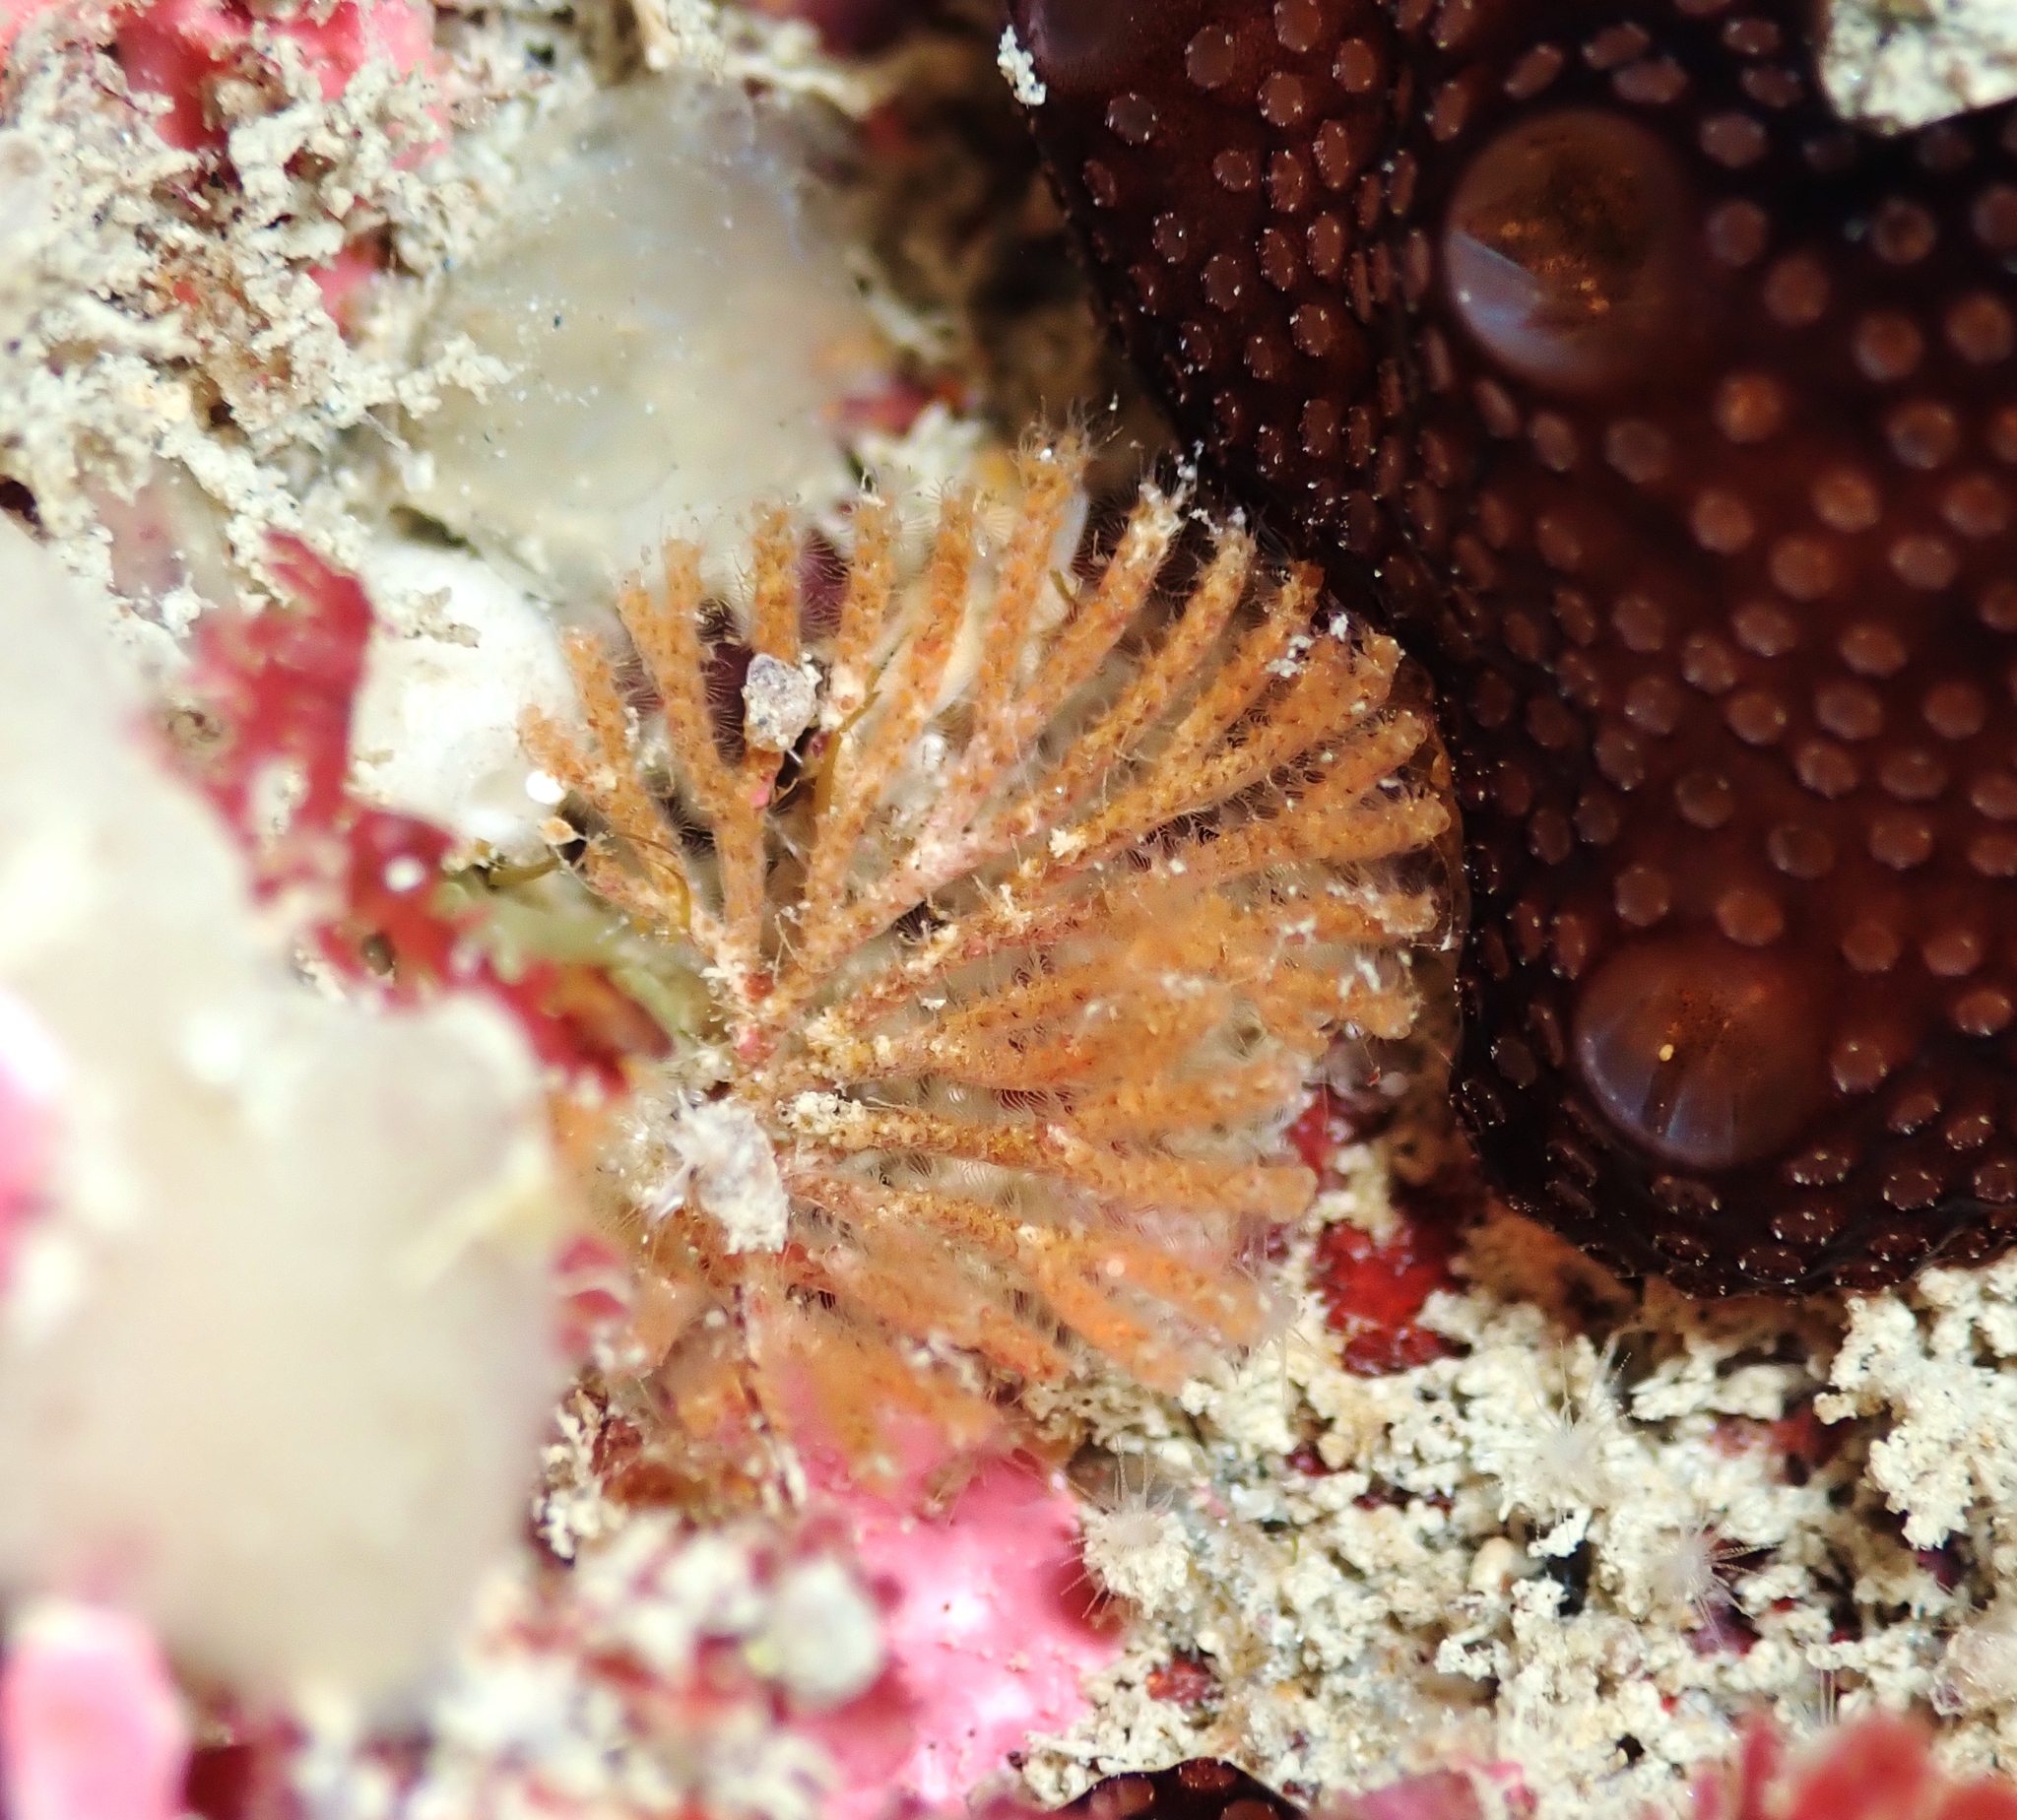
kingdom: Animalia
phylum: Bryozoa
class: Gymnolaemata
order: Cheilostomatida
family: Candidae
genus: Caberea
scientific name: Caberea zelandica
